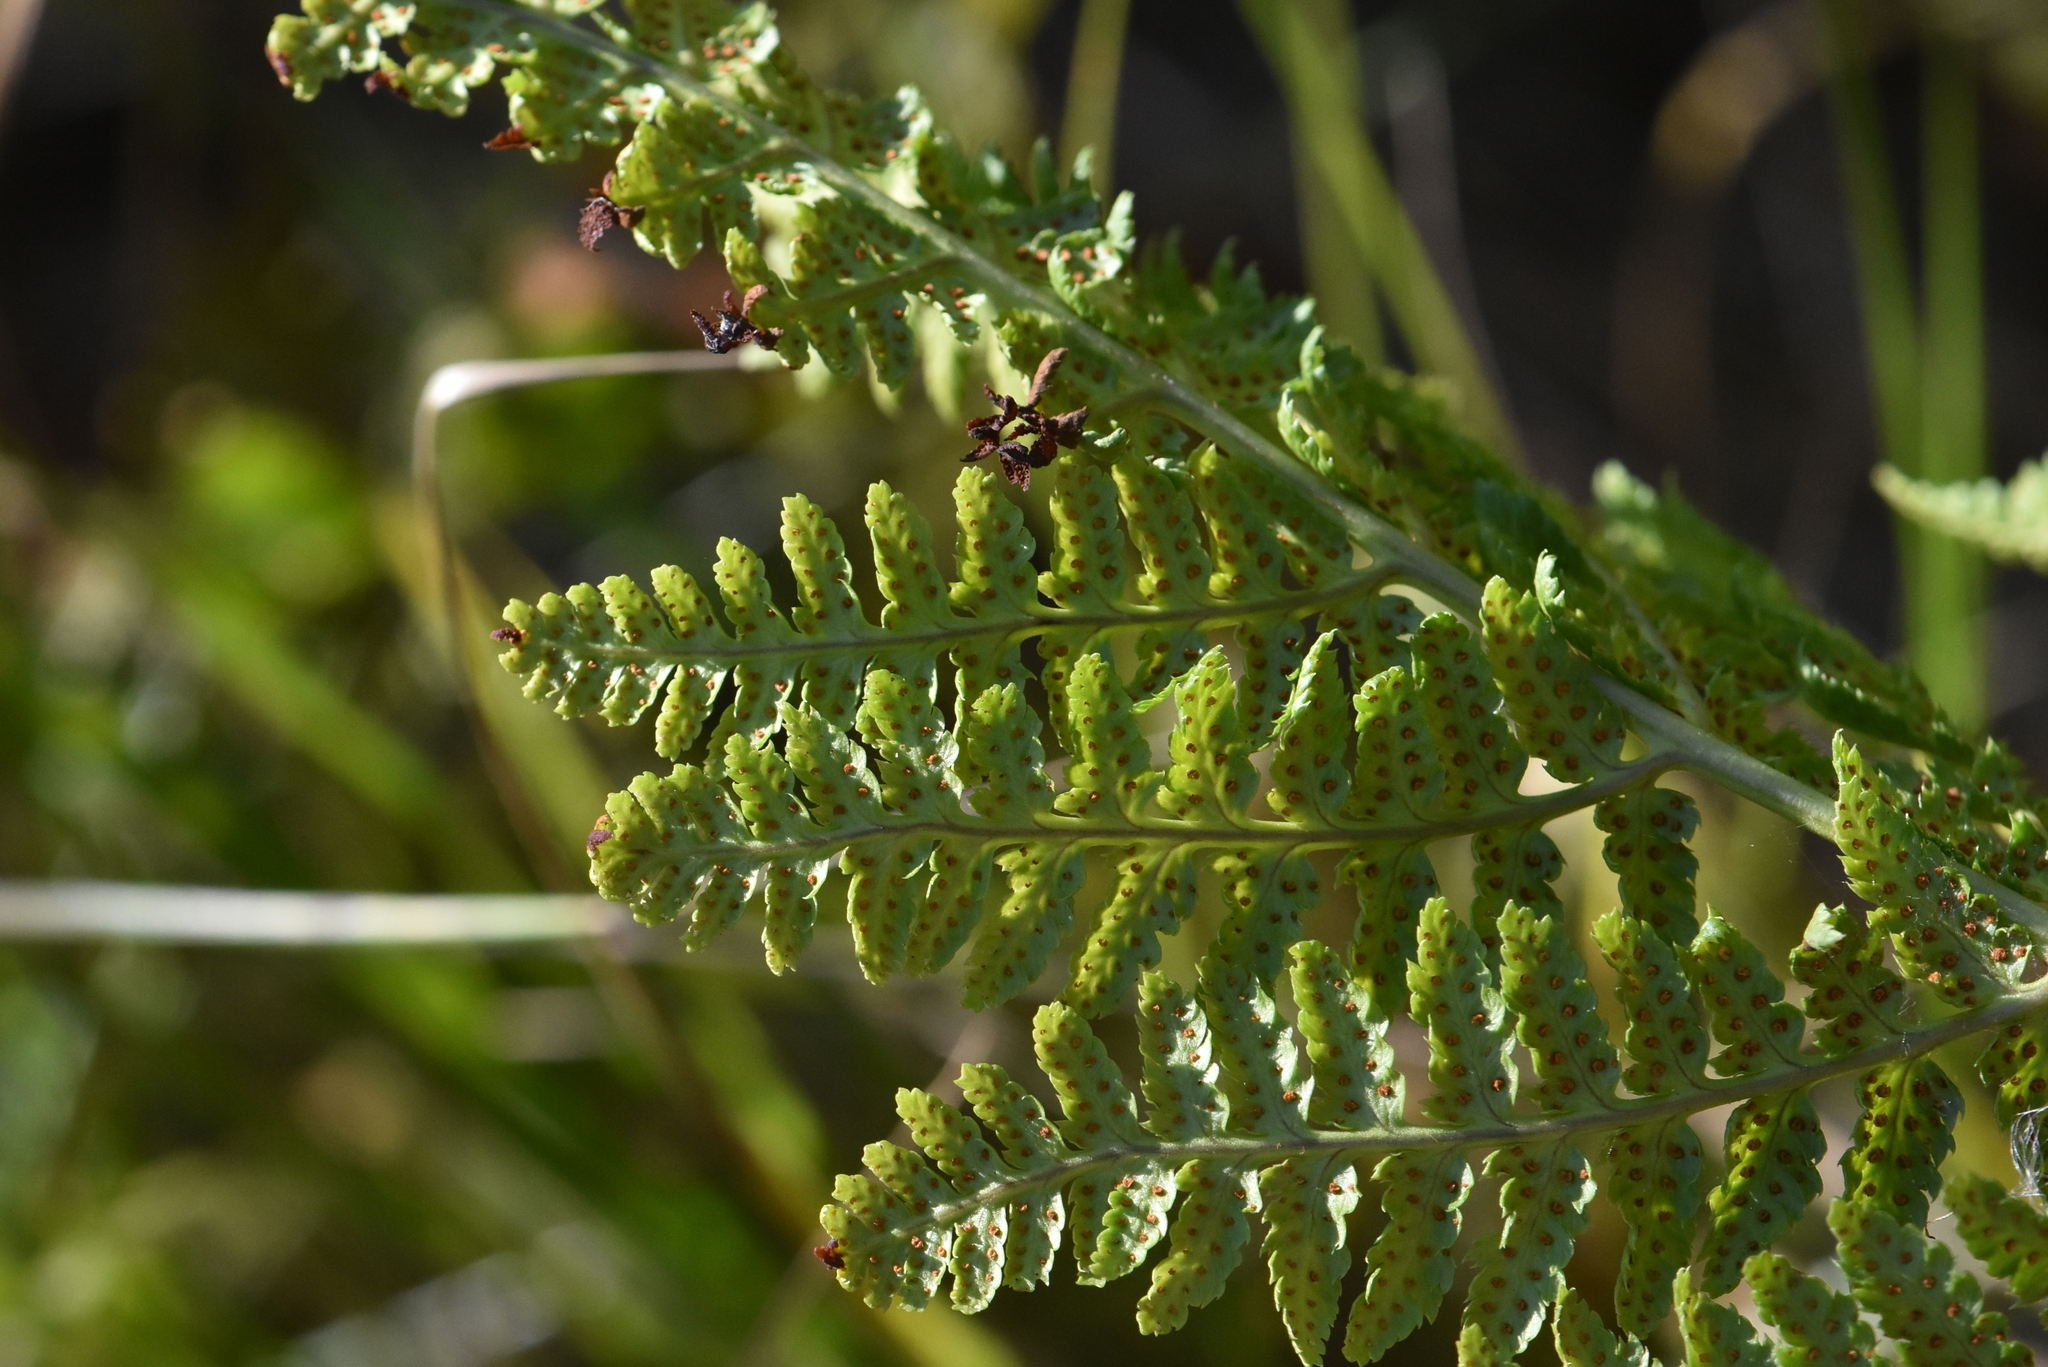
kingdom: Plantae
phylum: Tracheophyta
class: Polypodiopsida
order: Polypodiales
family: Dryopteridaceae
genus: Dryopteris
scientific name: Dryopteris carthusiana
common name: Narrow buckler-fern
